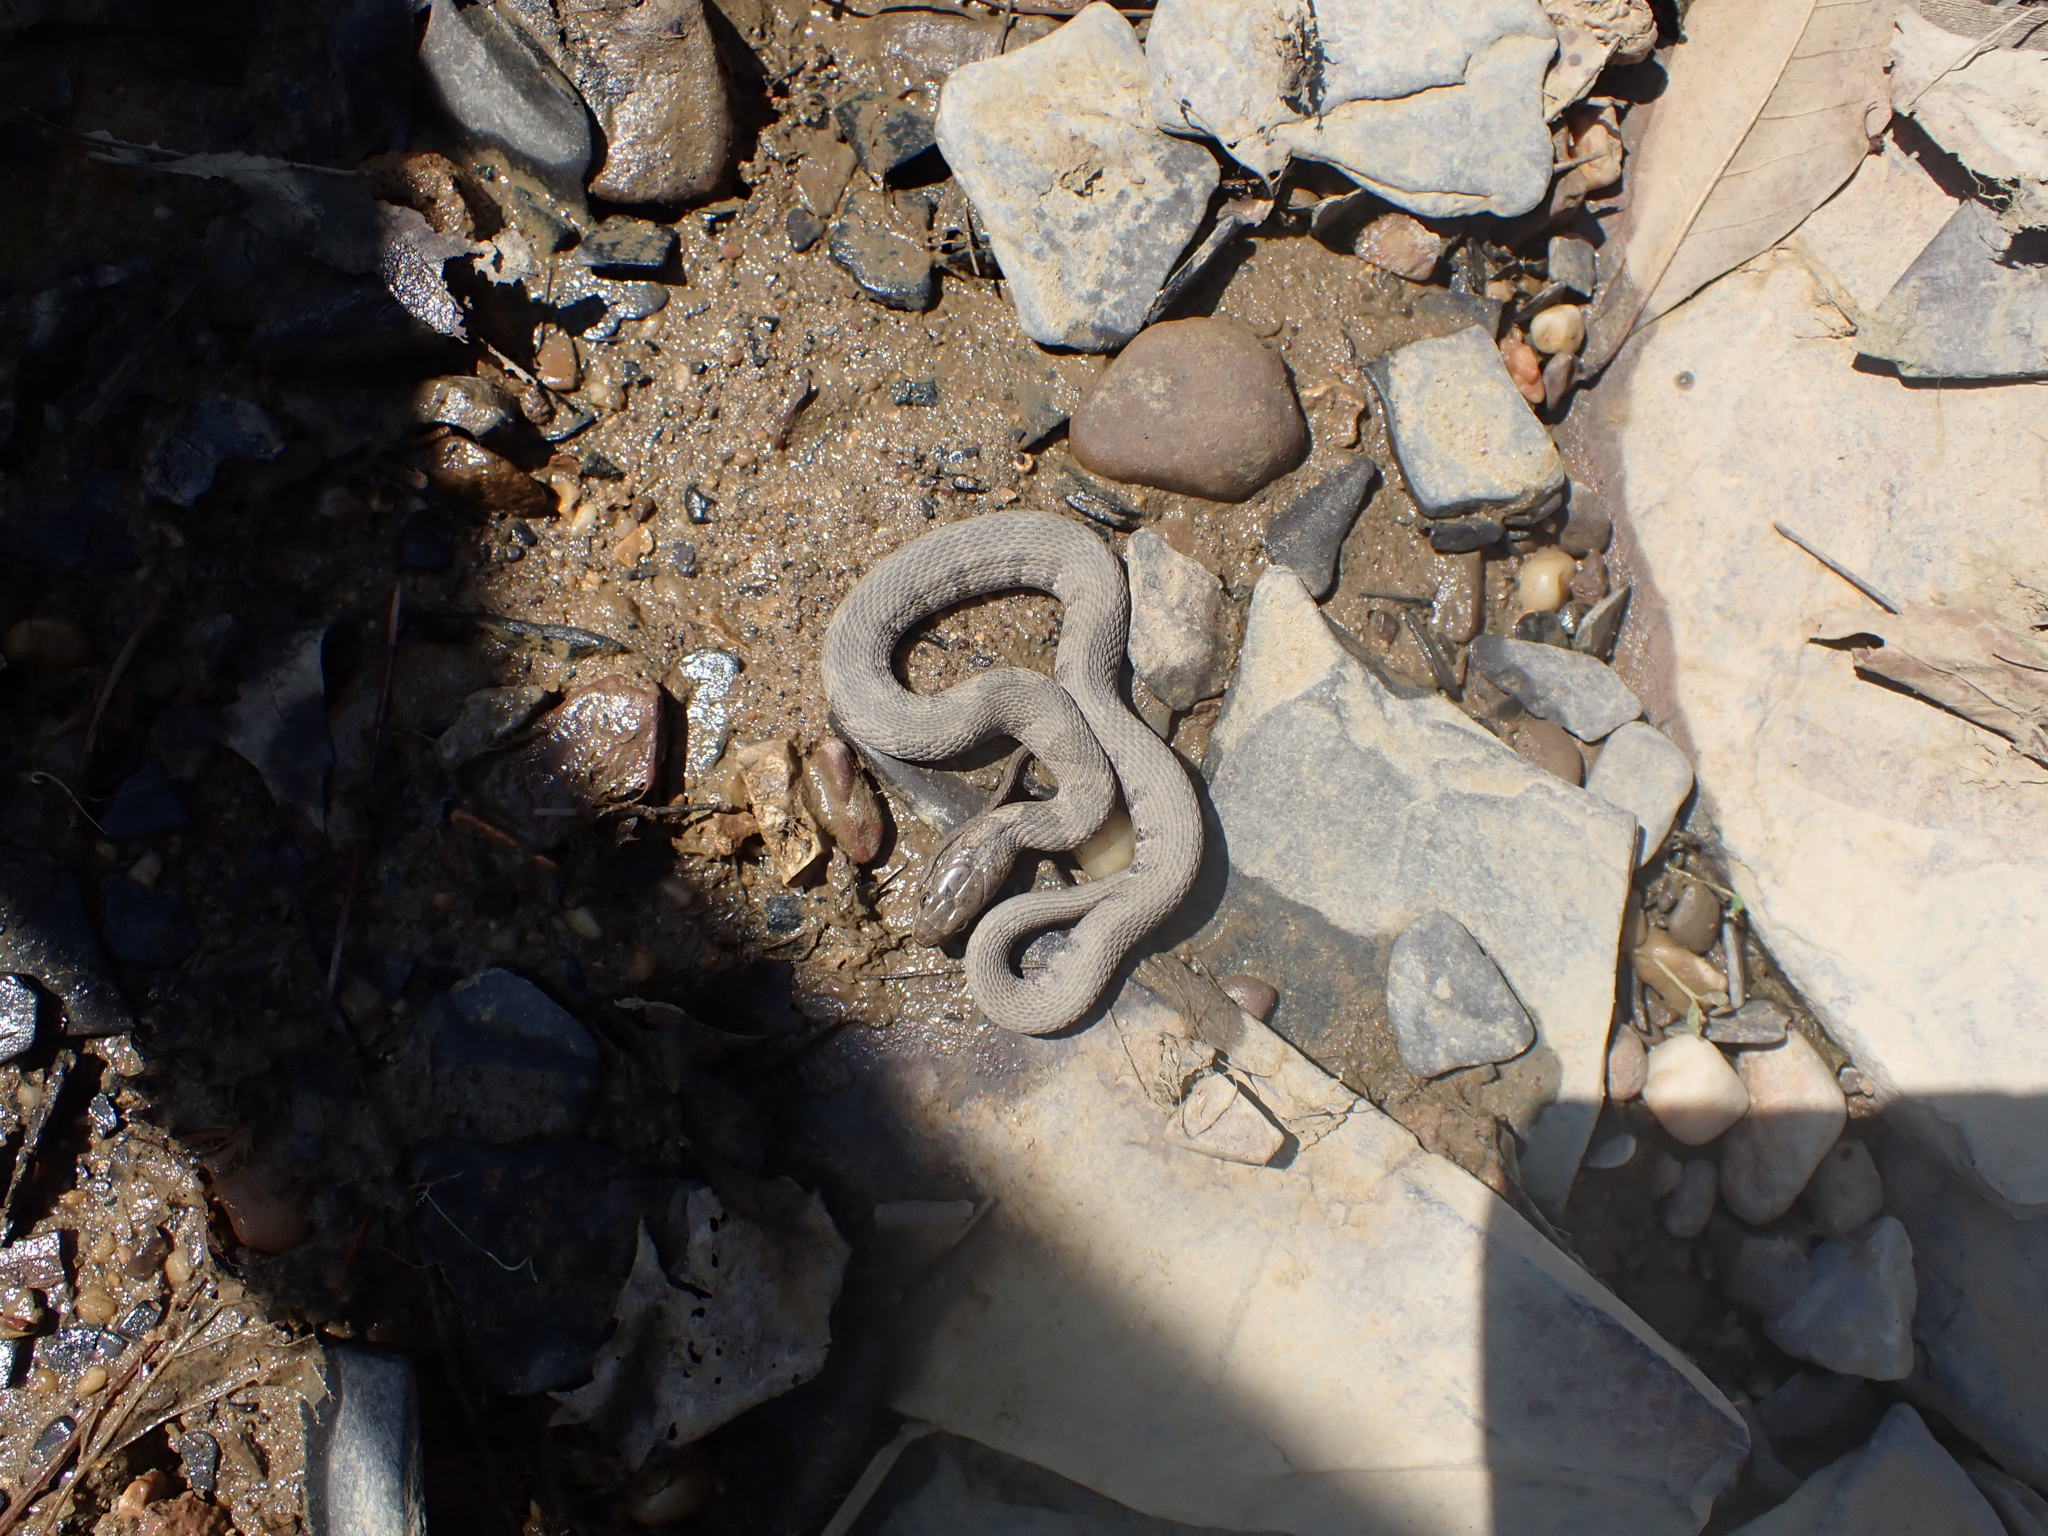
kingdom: Animalia
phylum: Chordata
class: Squamata
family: Colubridae
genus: Nerodia
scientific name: Nerodia sipedon
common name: Northern water snake
